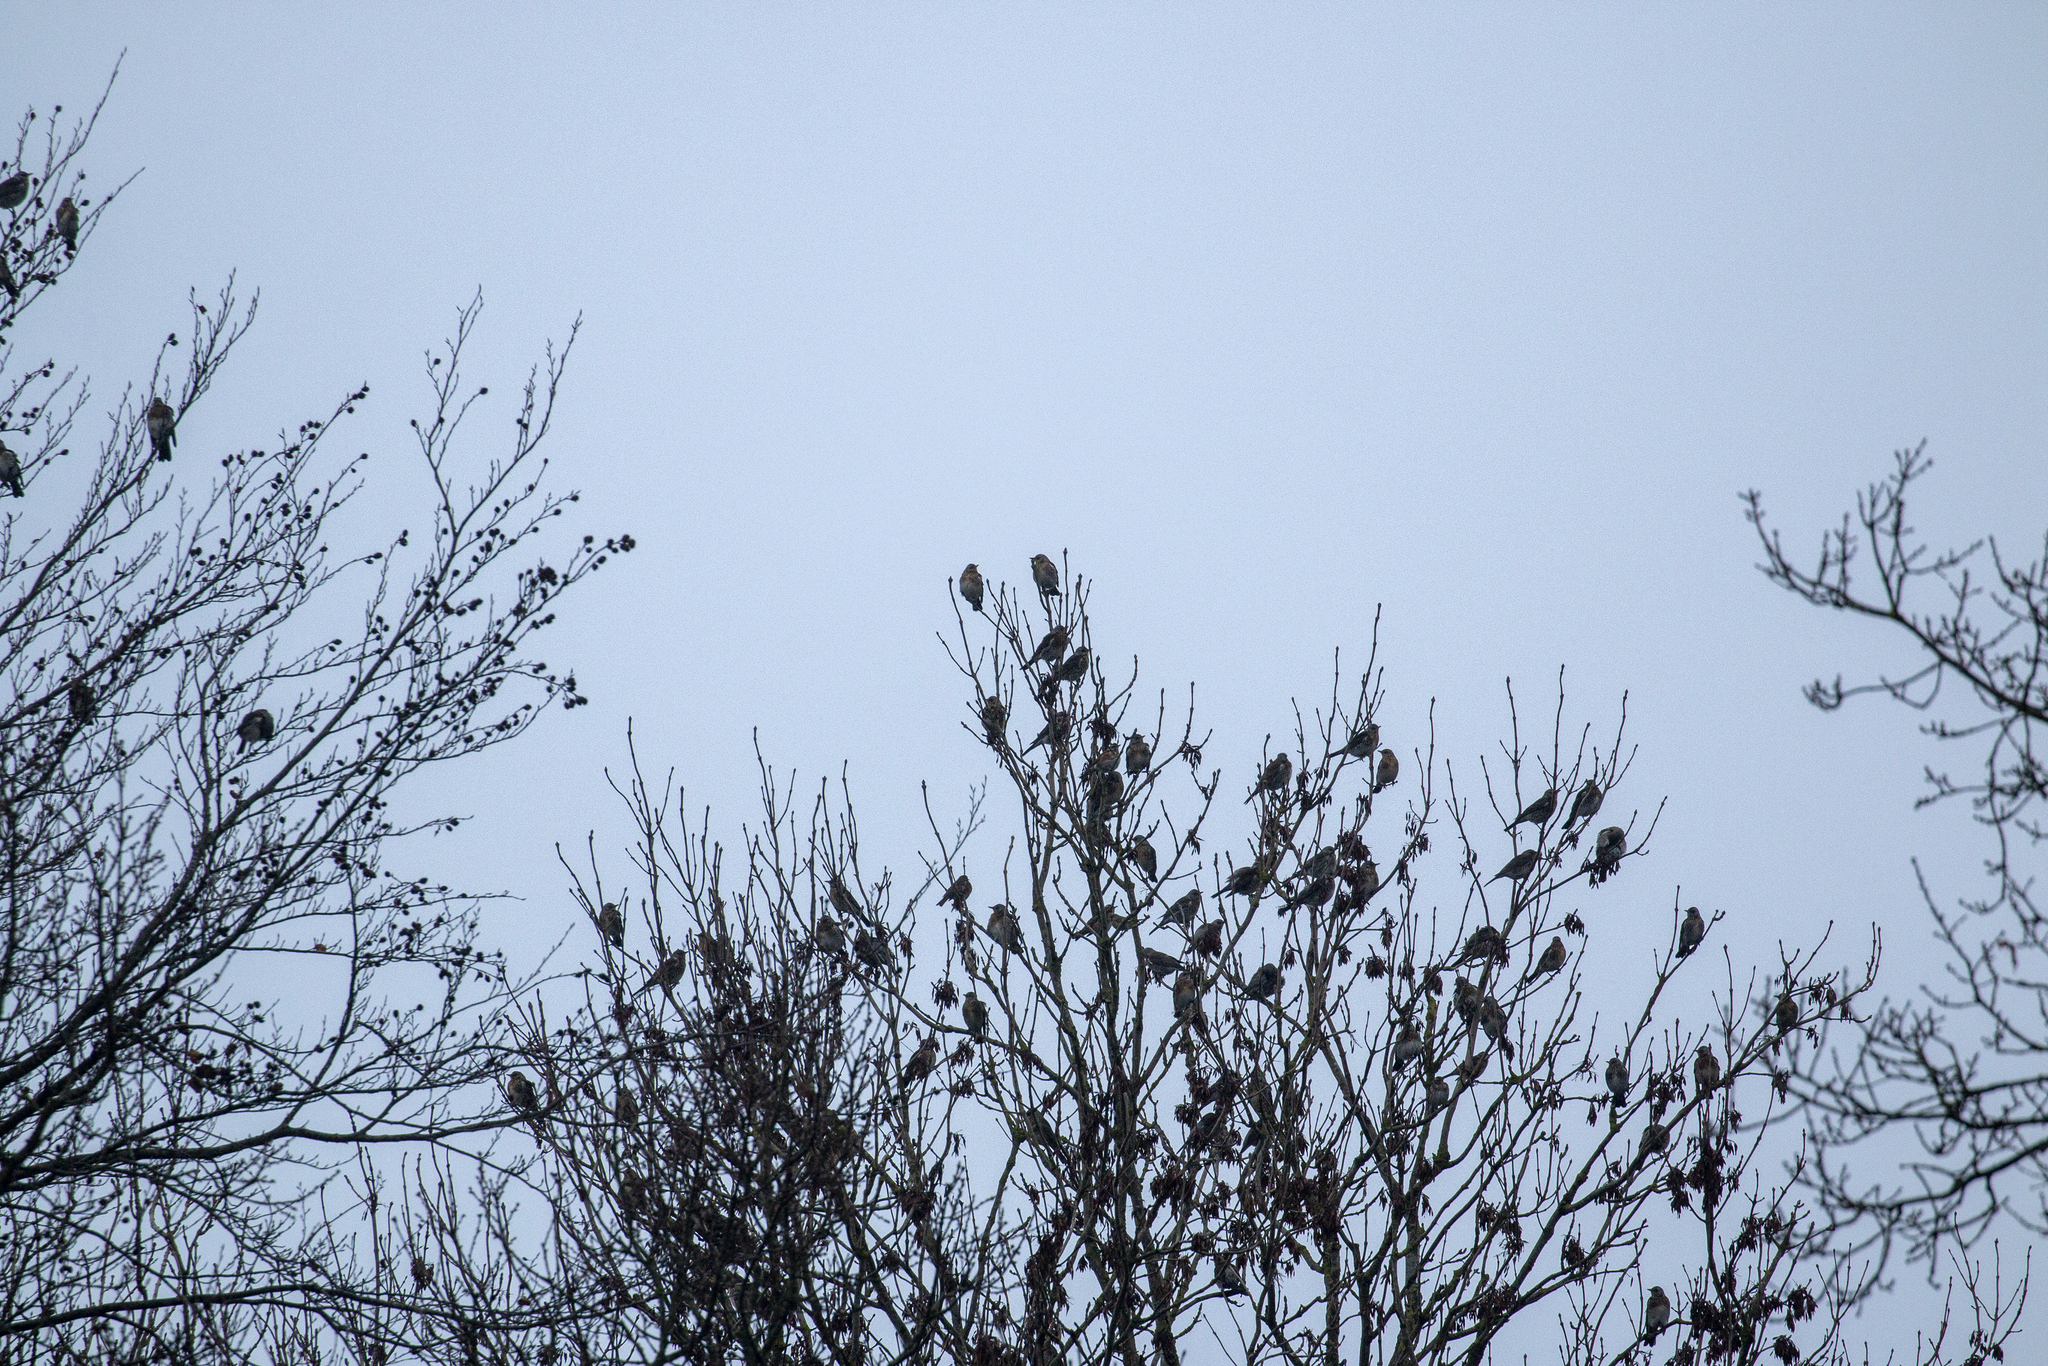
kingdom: Animalia
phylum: Chordata
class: Aves
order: Passeriformes
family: Turdidae
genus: Turdus
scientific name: Turdus pilaris
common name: Fieldfare
